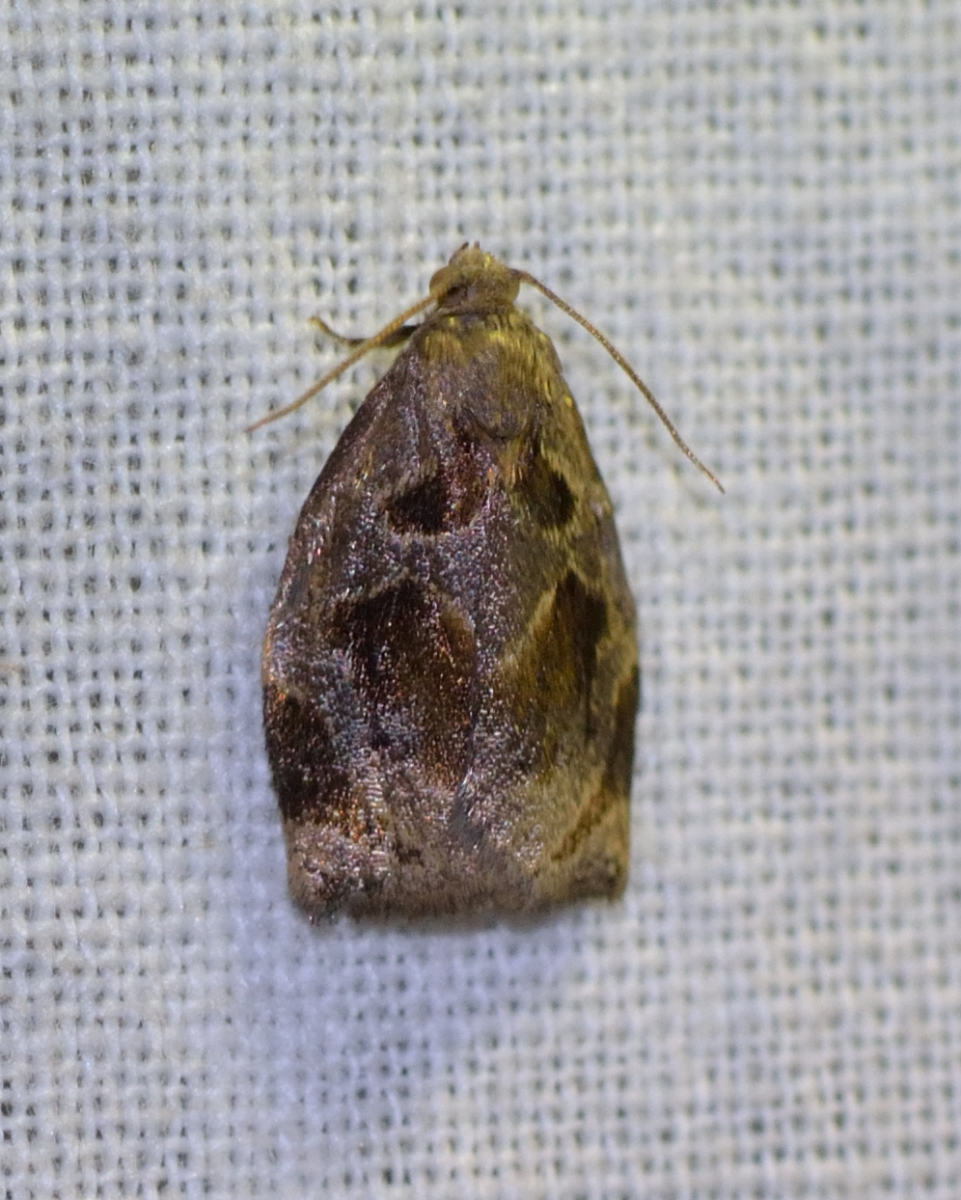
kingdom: Animalia
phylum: Arthropoda
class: Insecta
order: Lepidoptera
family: Tortricidae
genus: Archips
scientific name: Archips crataegana
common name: Brown oak tortrix
